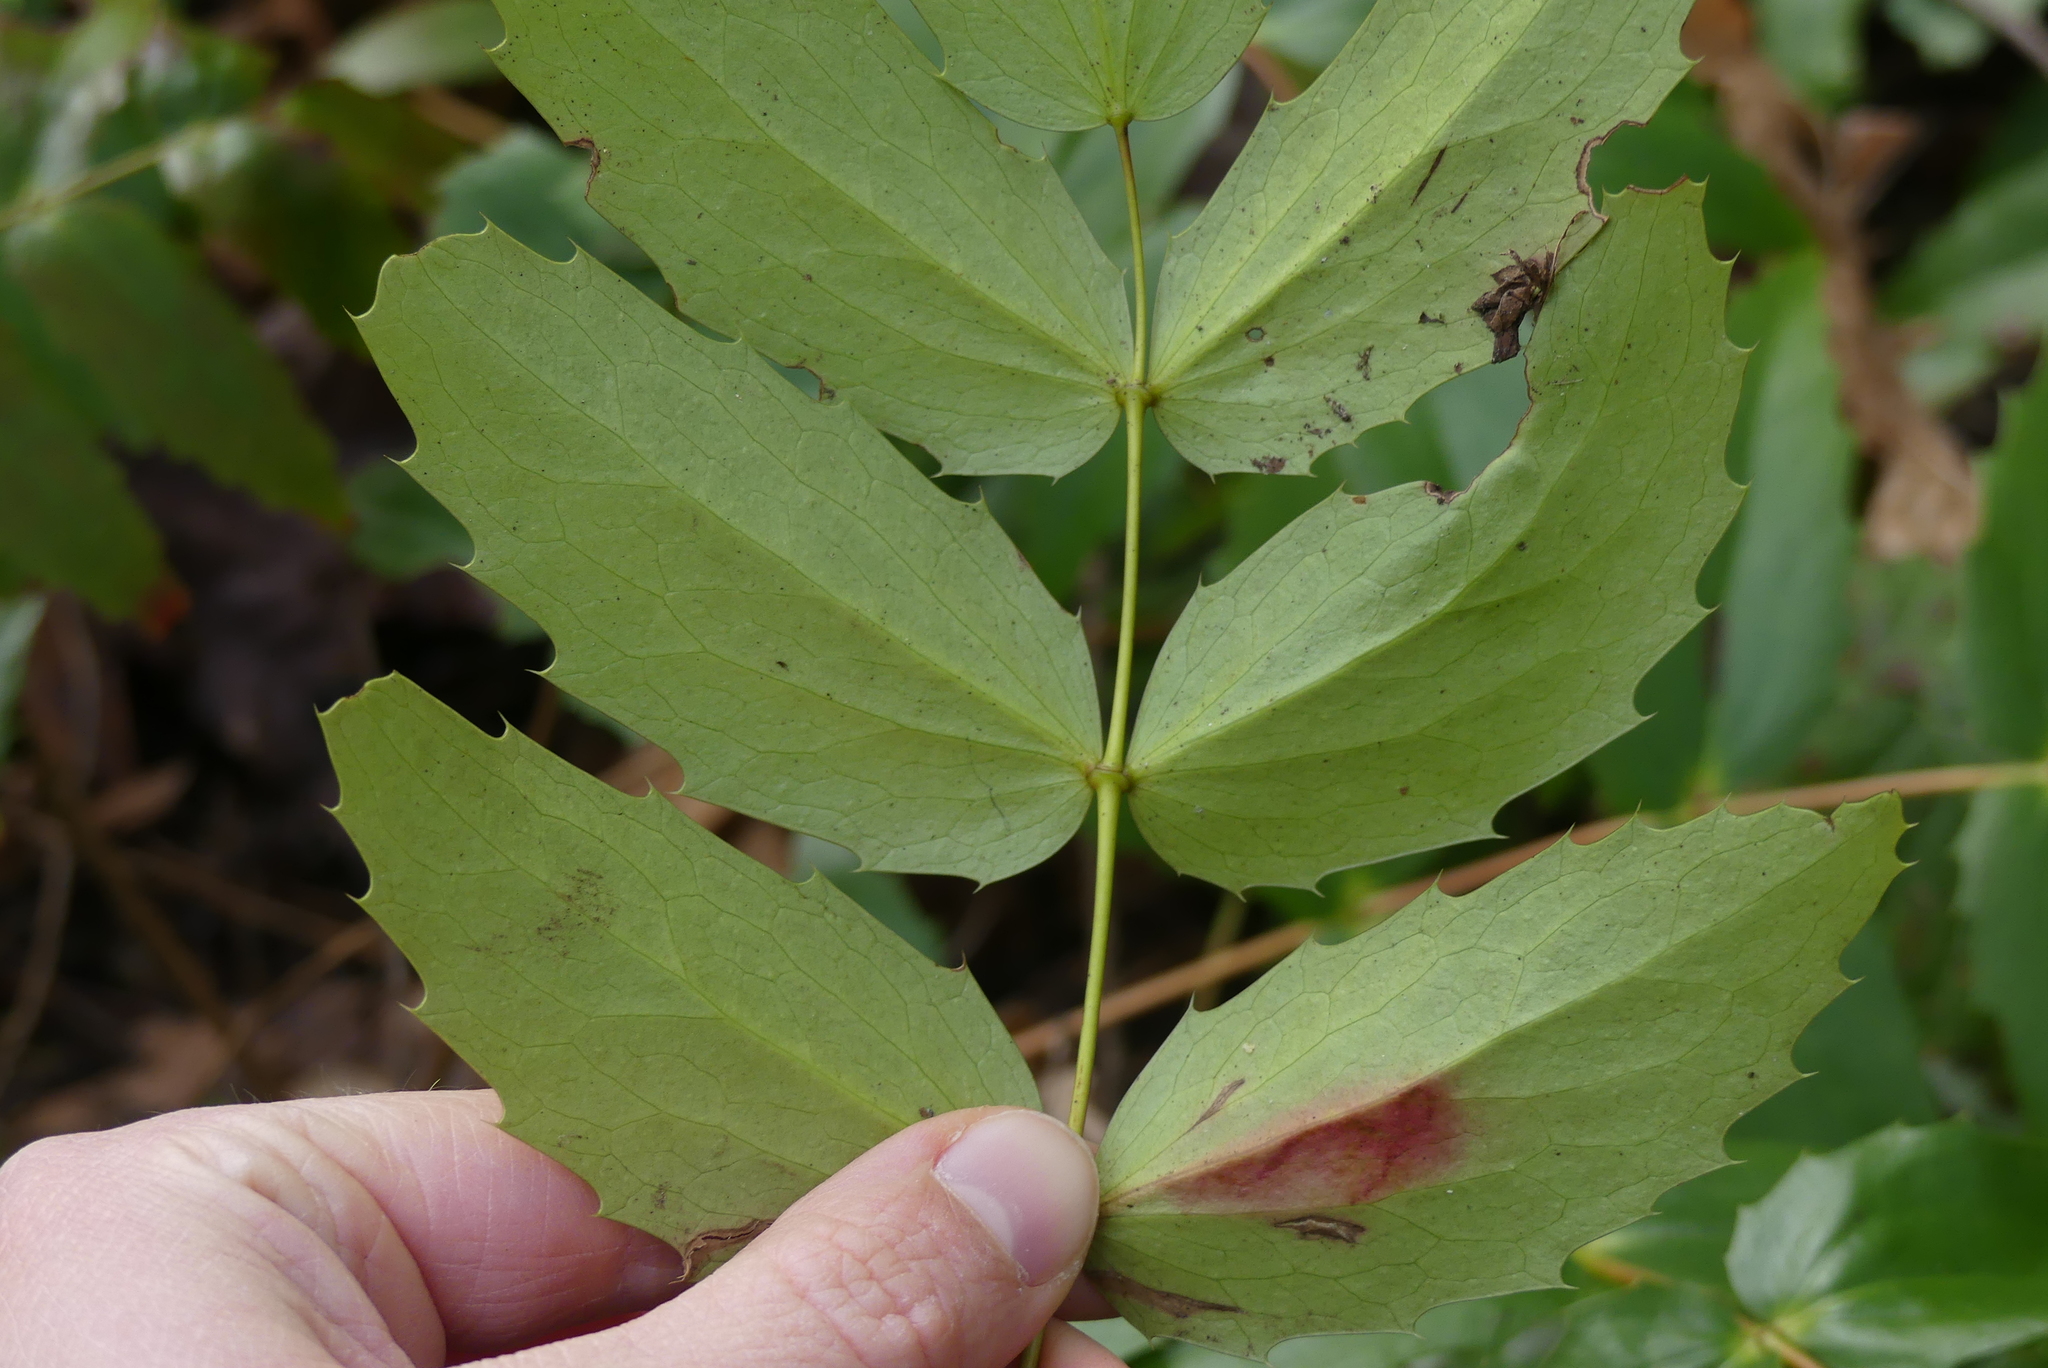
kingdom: Plantae
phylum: Tracheophyta
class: Magnoliopsida
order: Ranunculales
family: Berberidaceae
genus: Mahonia
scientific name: Mahonia nervosa
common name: Cascade oregon-grape
